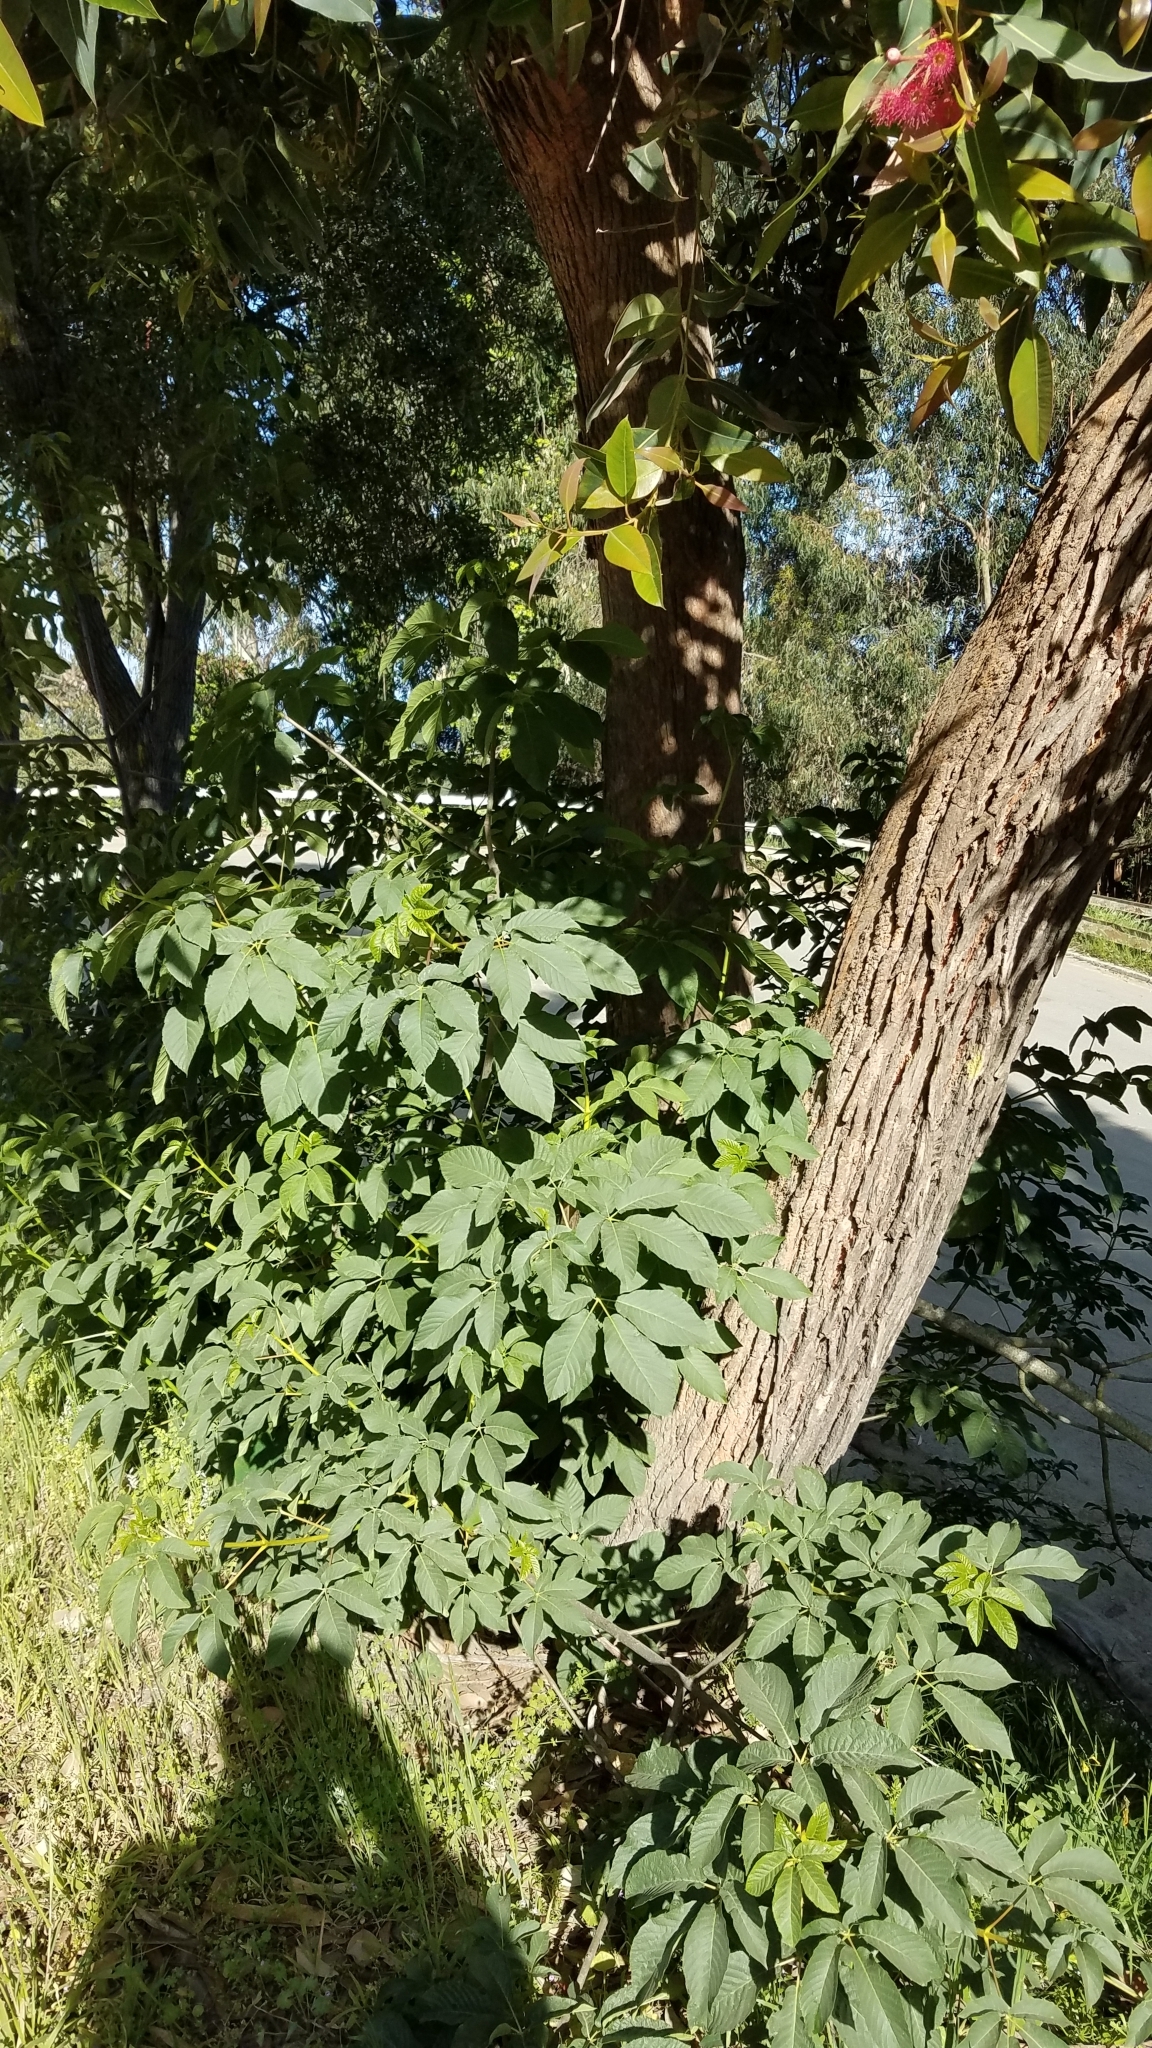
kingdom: Plantae
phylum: Tracheophyta
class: Magnoliopsida
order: Sapindales
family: Sapindaceae
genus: Aesculus
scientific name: Aesculus californica
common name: California buckeye
